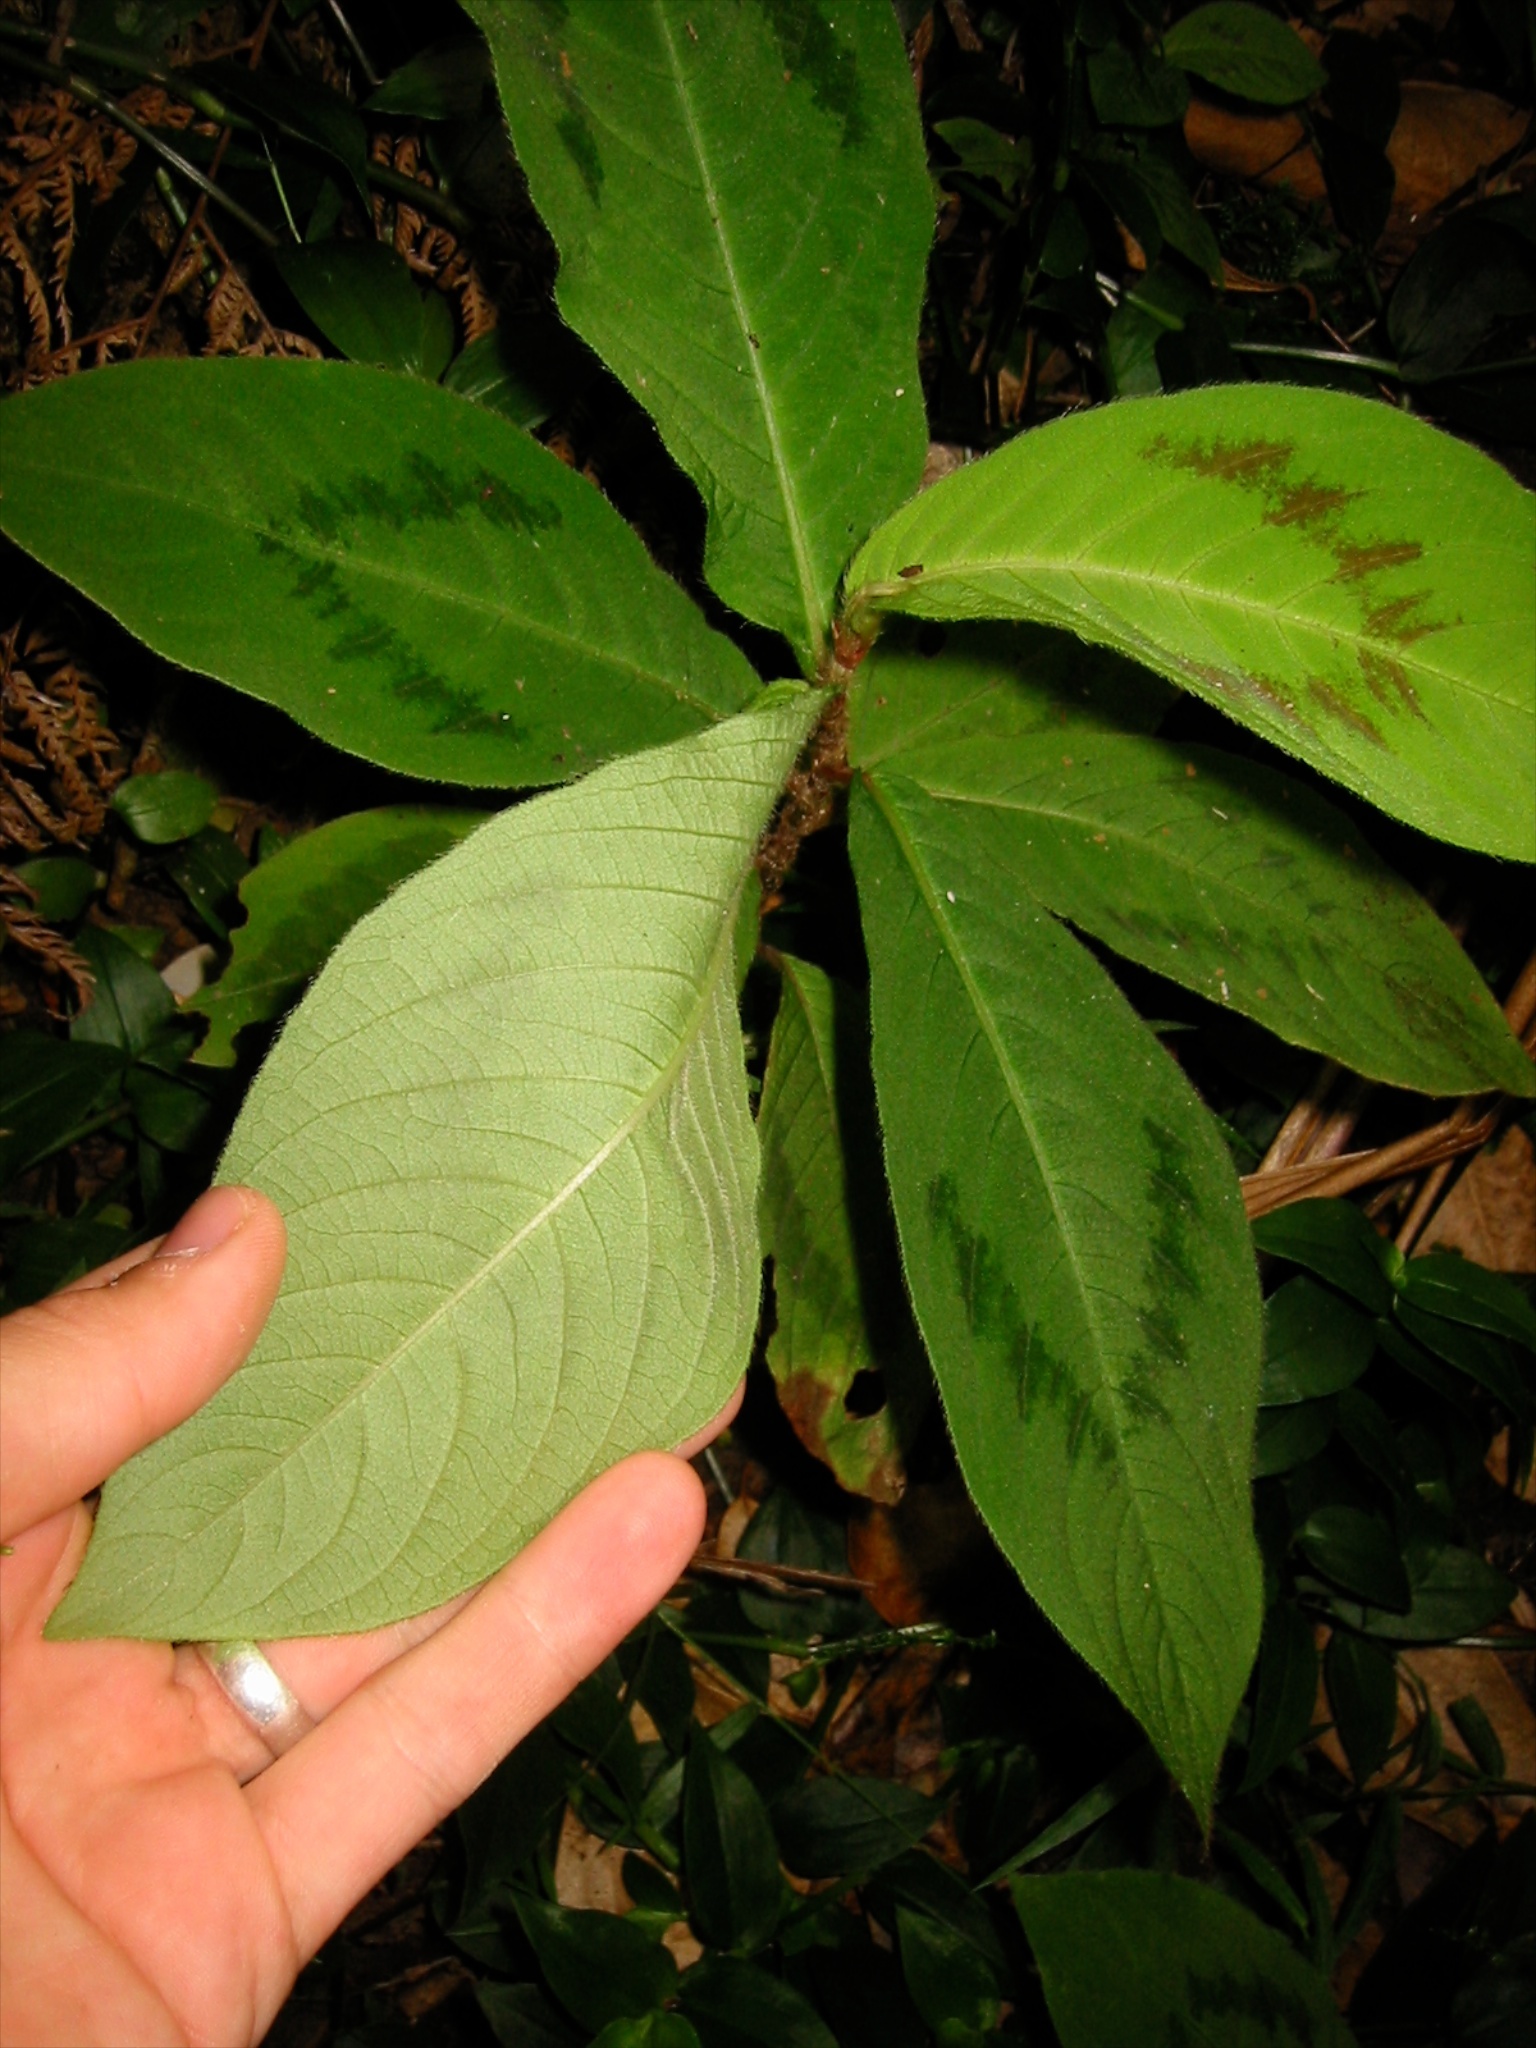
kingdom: Plantae
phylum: Tracheophyta
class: Magnoliopsida
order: Caryophyllales
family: Polygonaceae
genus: Persicaria
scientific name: Persicaria filiformis
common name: Asian jumpseed
